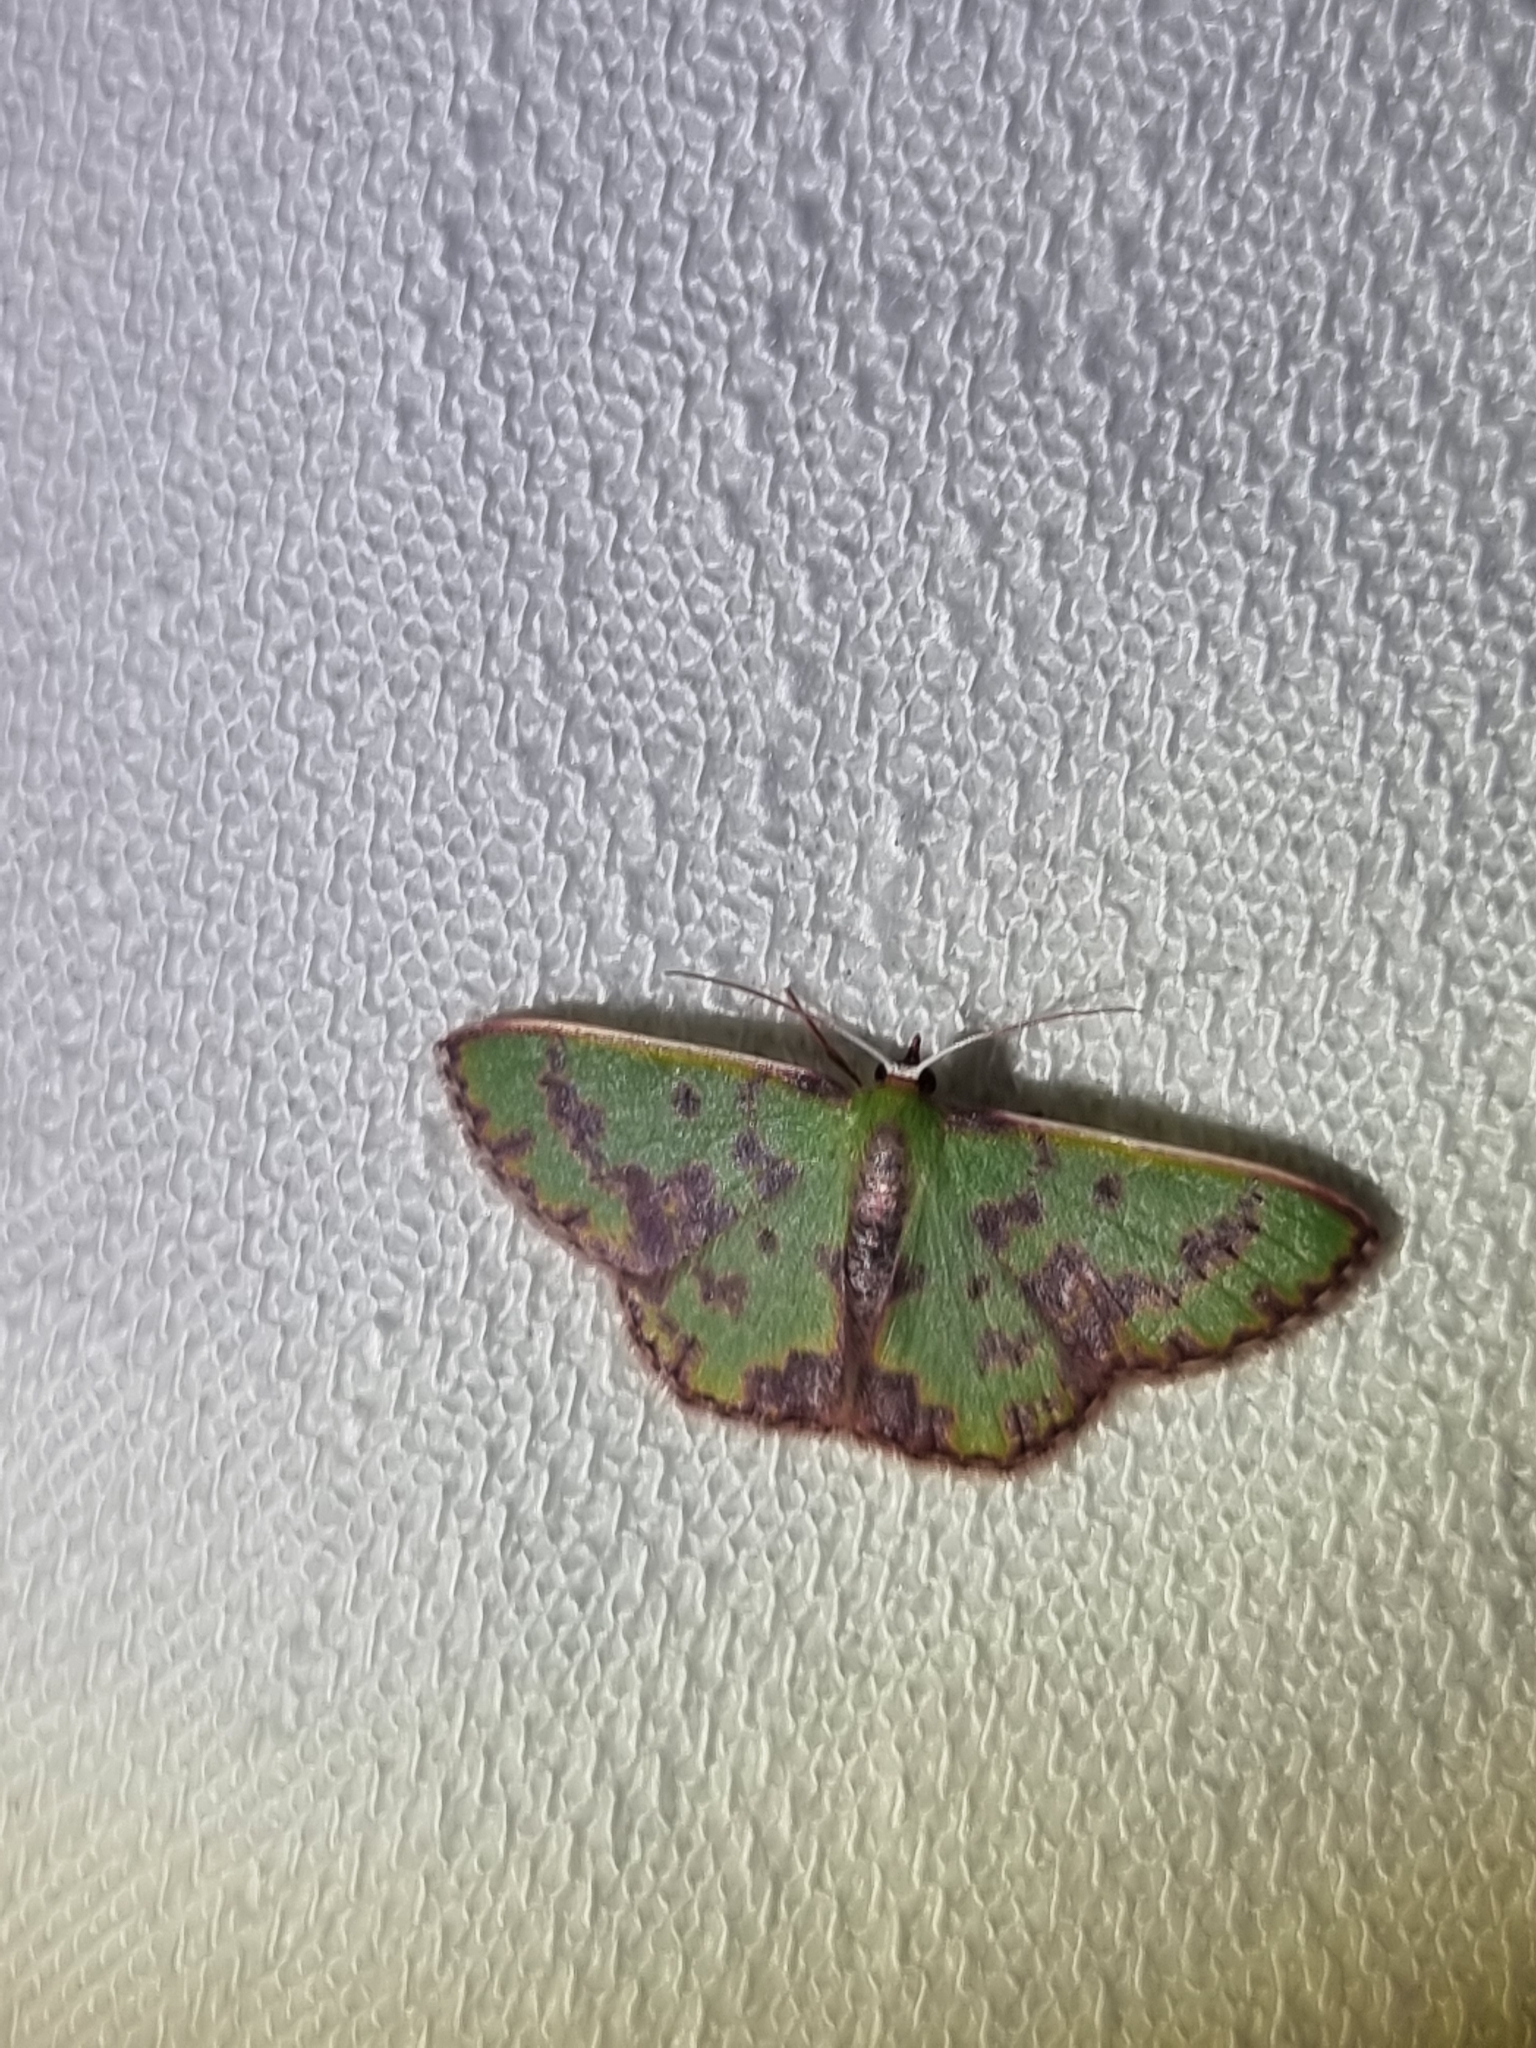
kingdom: Animalia
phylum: Arthropoda
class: Insecta
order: Lepidoptera
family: Geometridae
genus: Prasinocyma
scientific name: Prasinocyma rhodocosma
